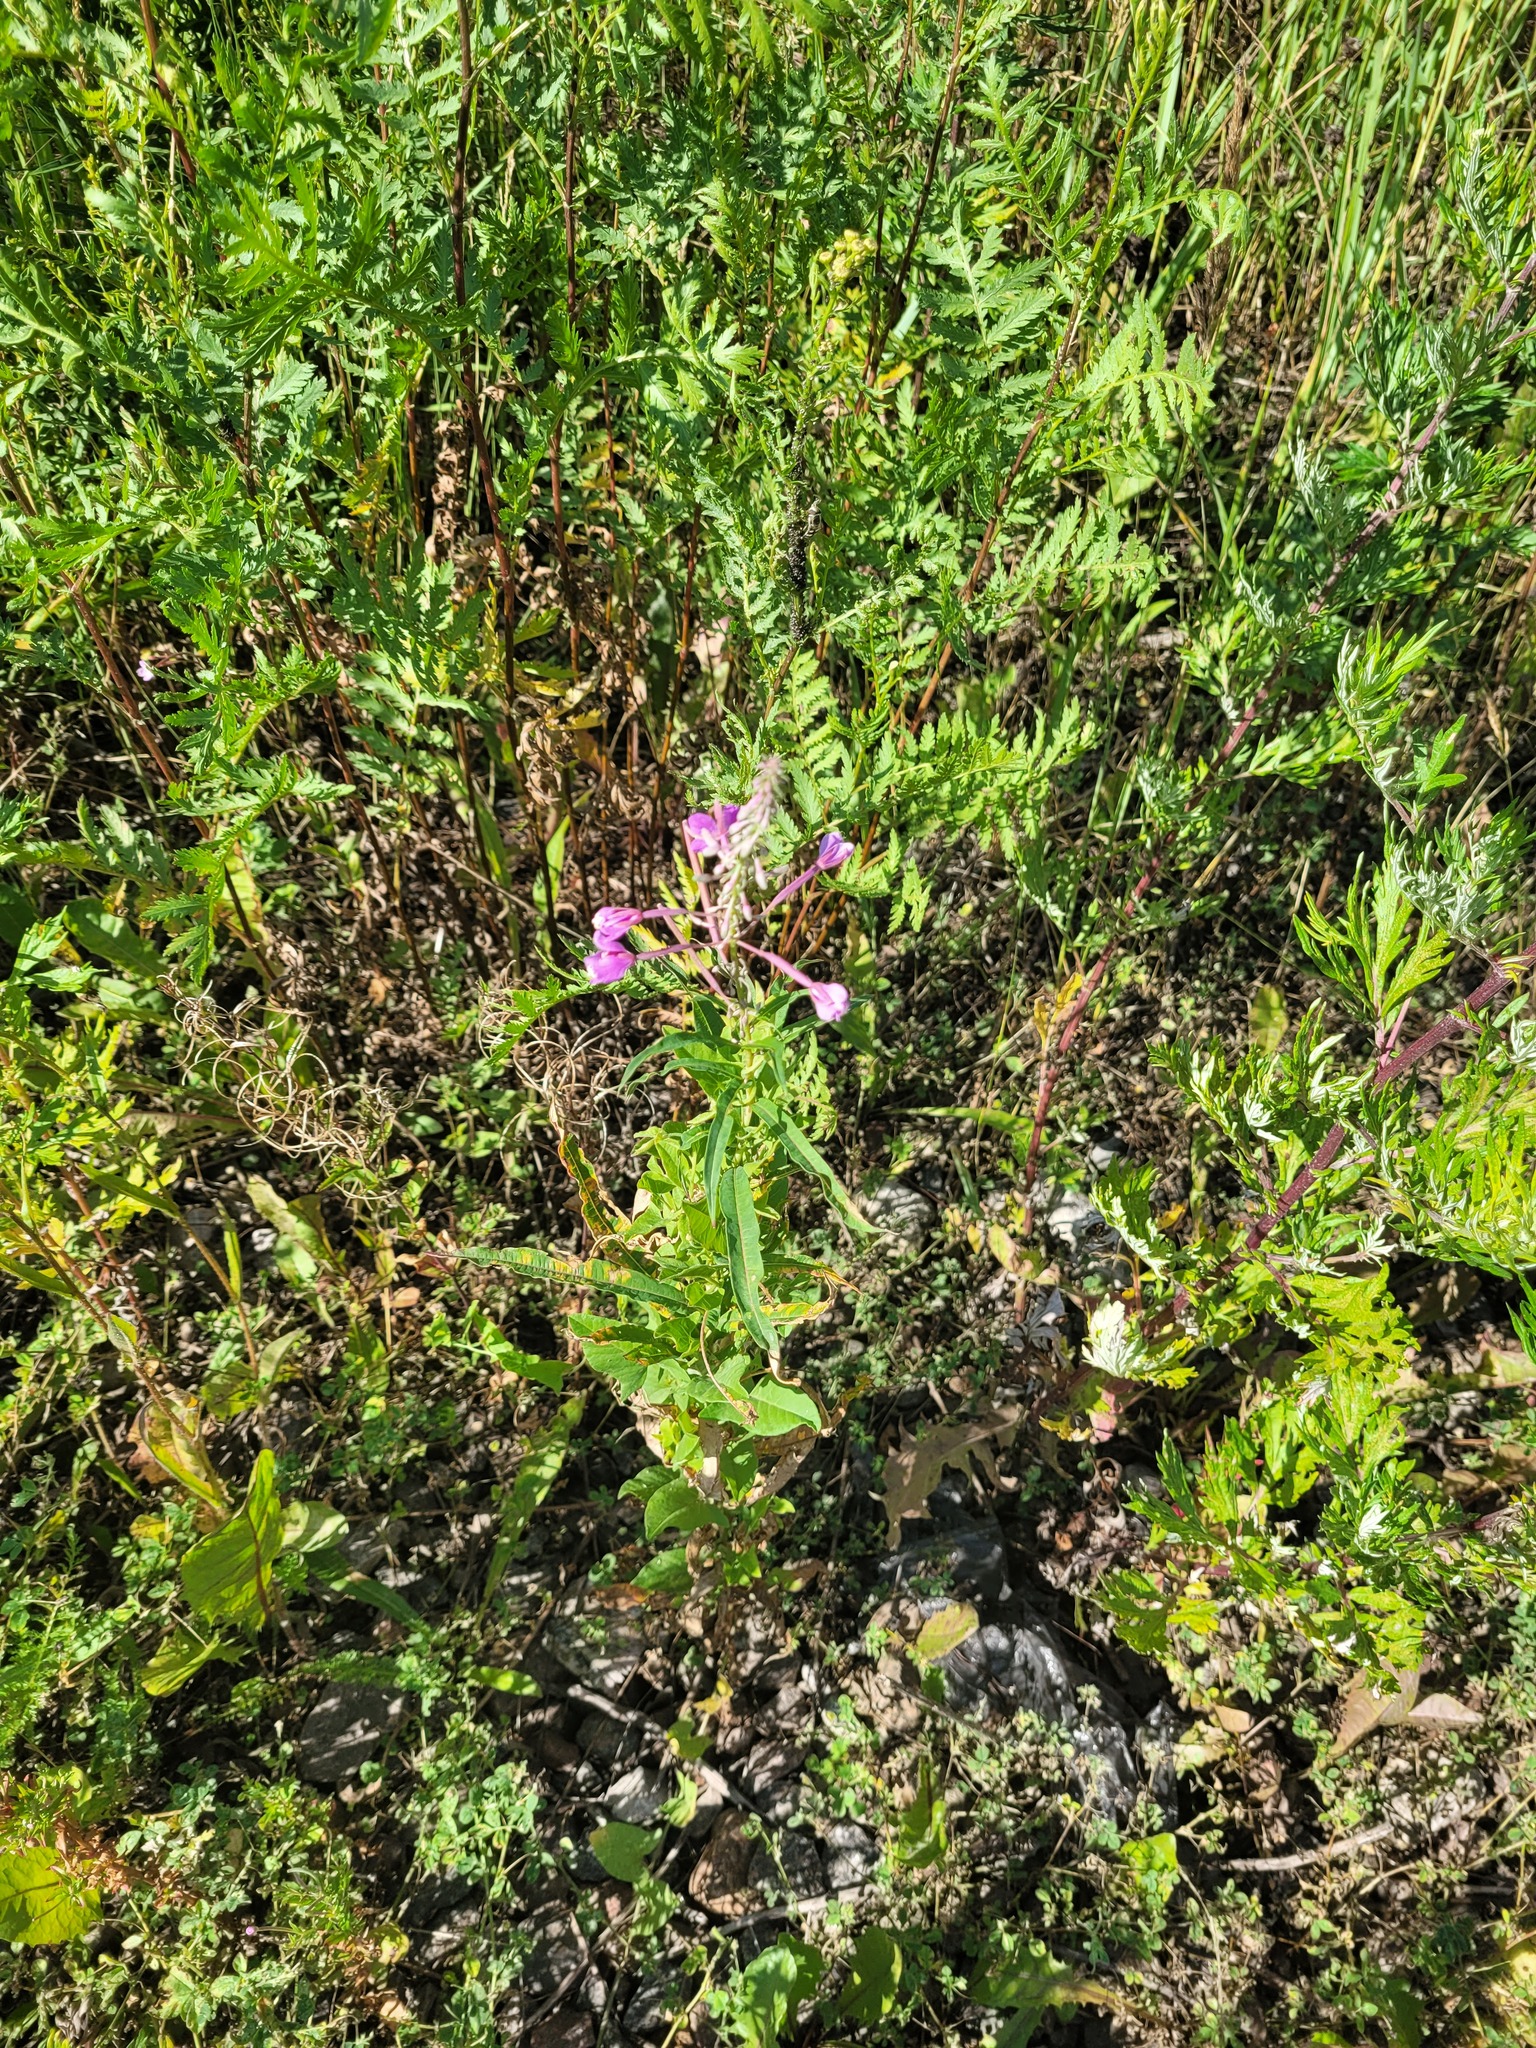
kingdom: Plantae
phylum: Tracheophyta
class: Magnoliopsida
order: Myrtales
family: Onagraceae
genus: Chamaenerion
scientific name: Chamaenerion angustifolium
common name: Fireweed
